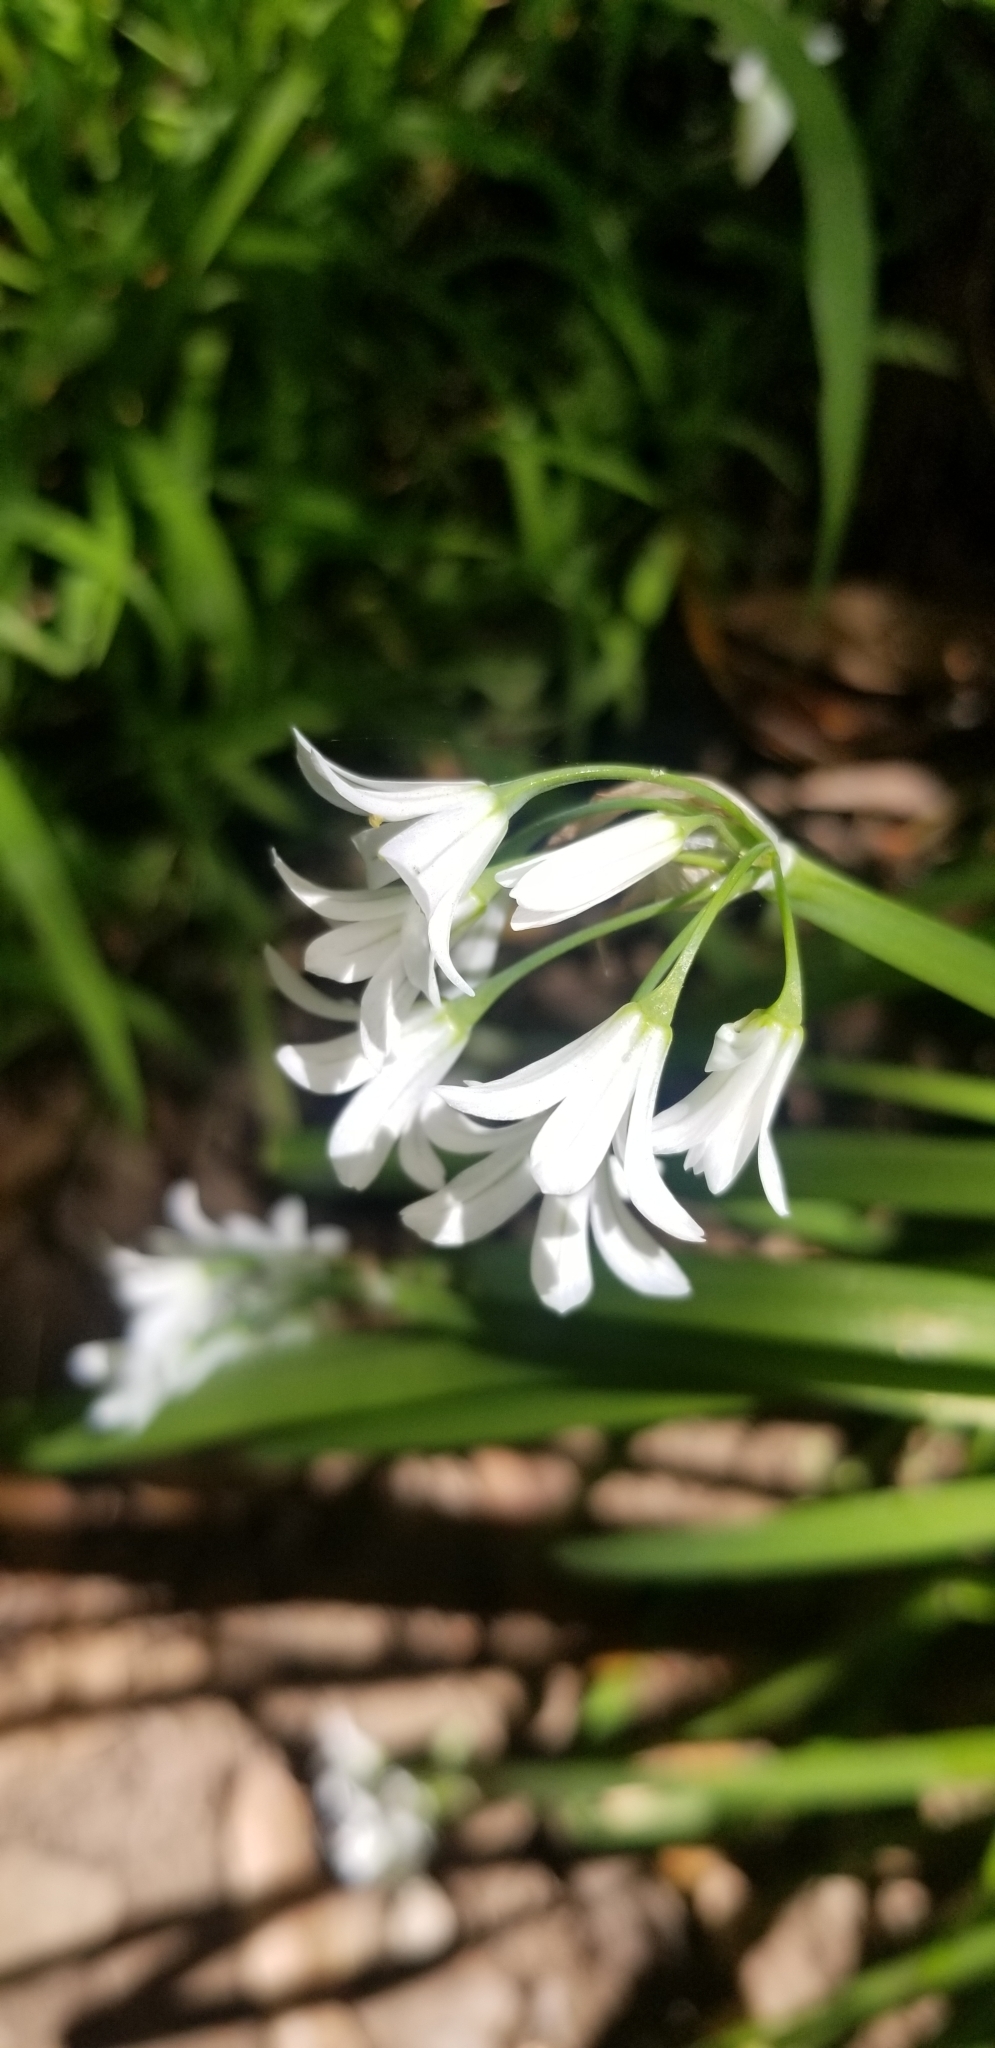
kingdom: Plantae
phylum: Tracheophyta
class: Liliopsida
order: Asparagales
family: Amaryllidaceae
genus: Allium
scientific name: Allium triquetrum
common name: Three-cornered garlic
